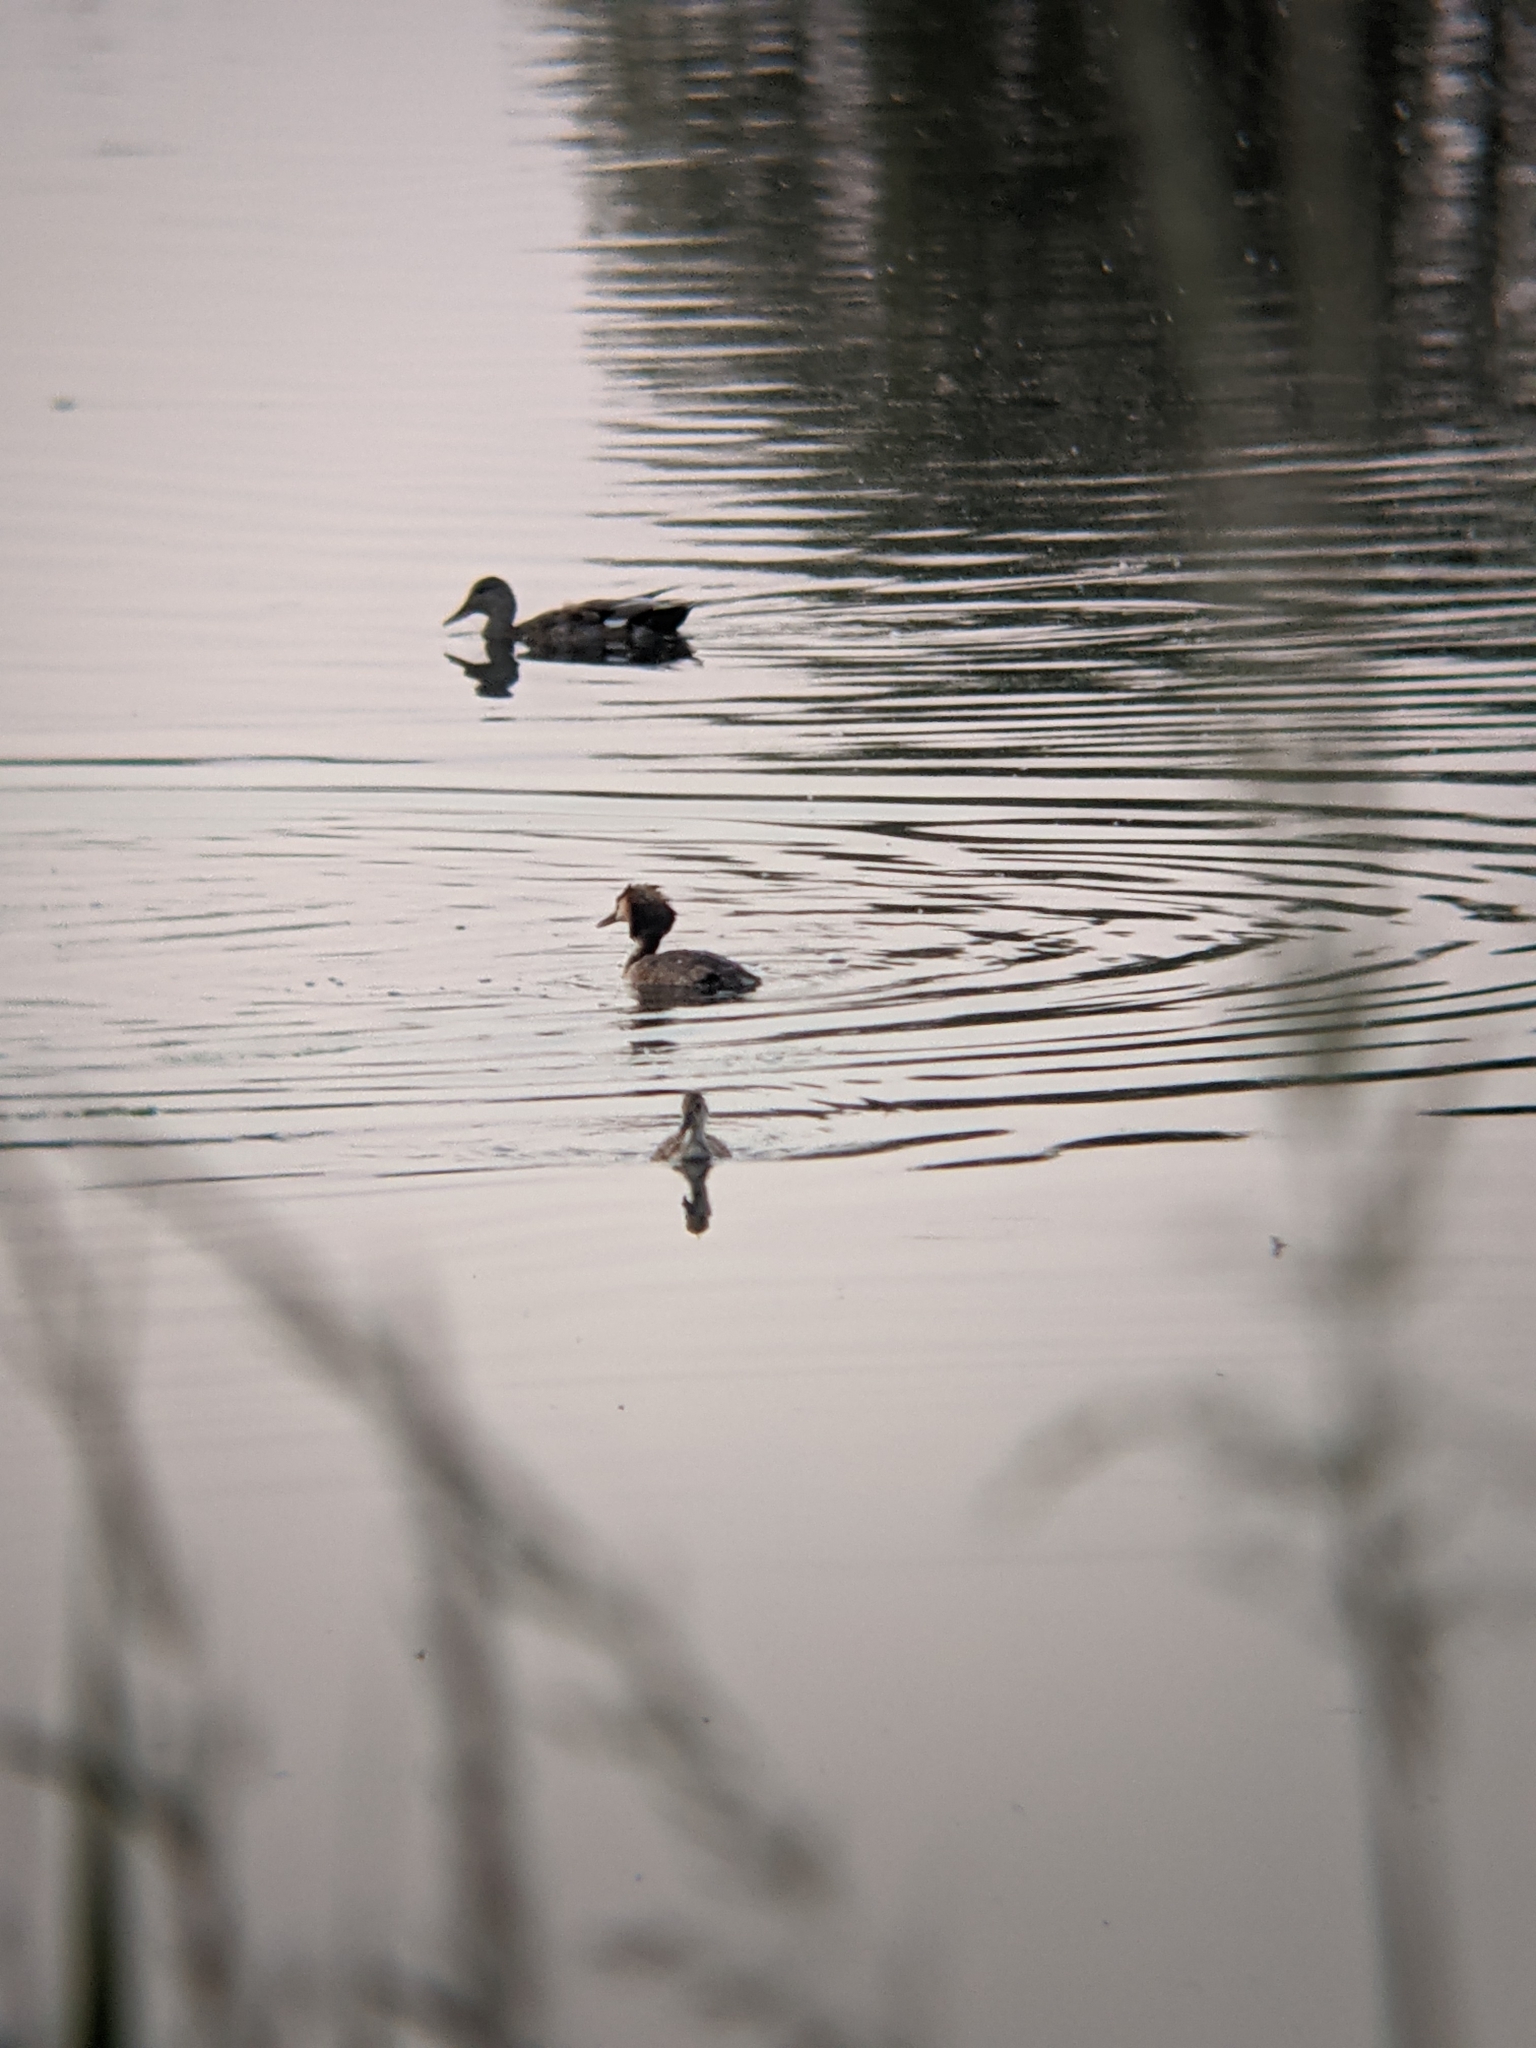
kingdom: Animalia
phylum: Chordata
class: Aves
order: Podicipediformes
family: Podicipedidae
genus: Podiceps
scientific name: Podiceps cristatus
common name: Great crested grebe
